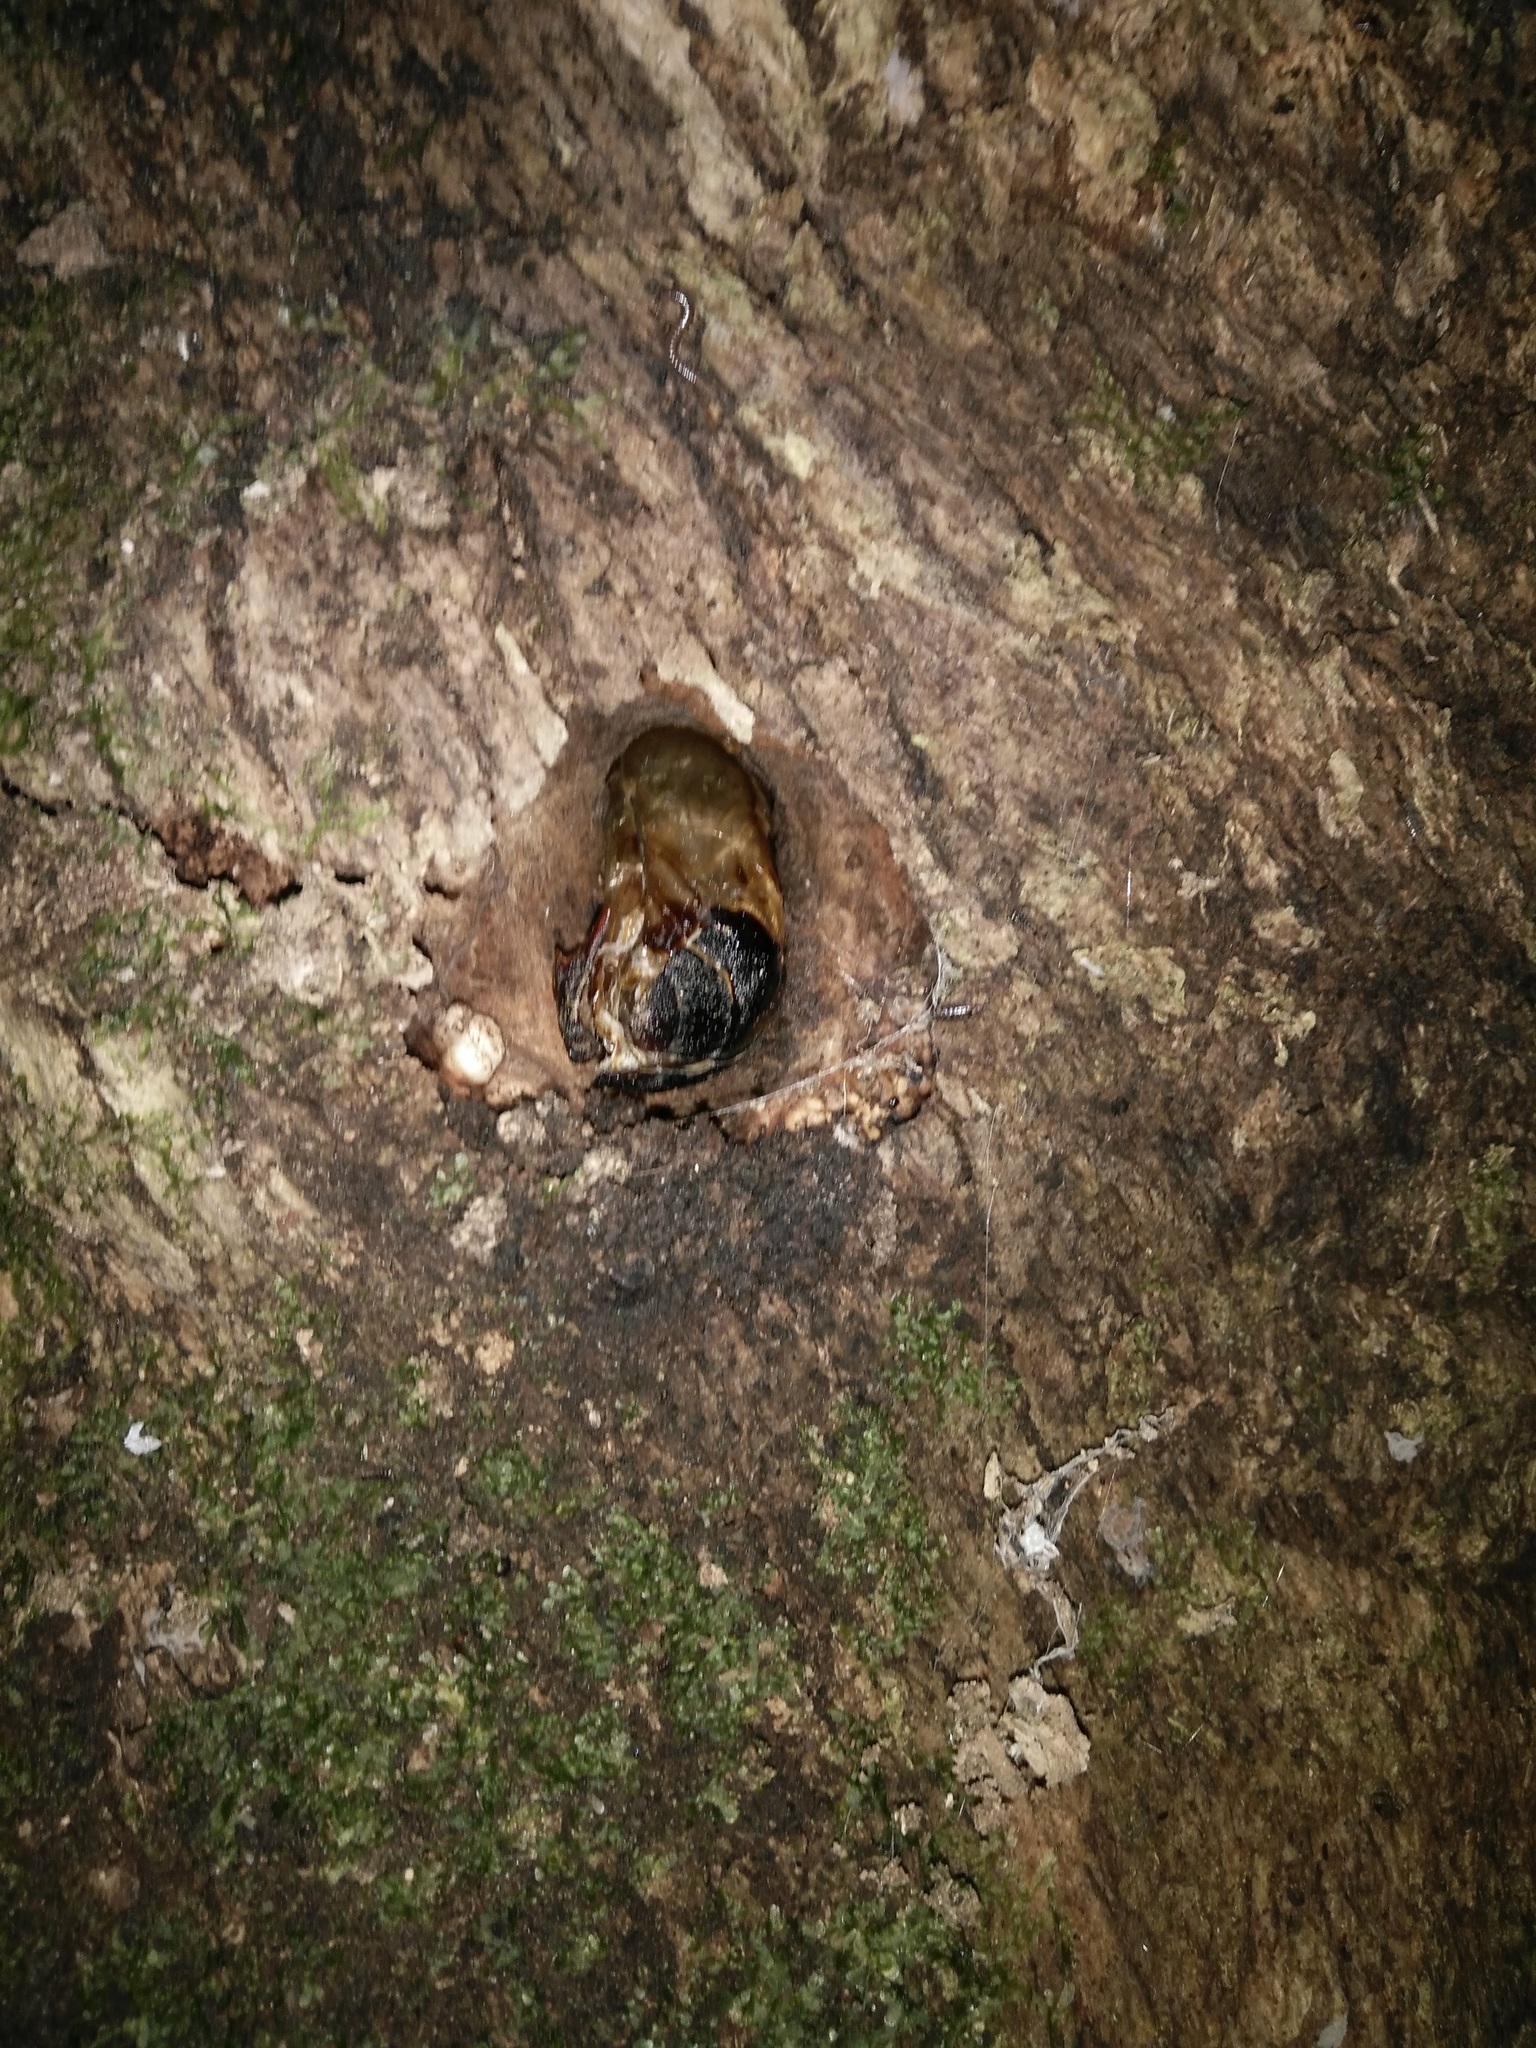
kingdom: Animalia
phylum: Arthropoda
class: Insecta
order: Lepidoptera
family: Hepialidae
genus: Aenetus
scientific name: Aenetus virescens
